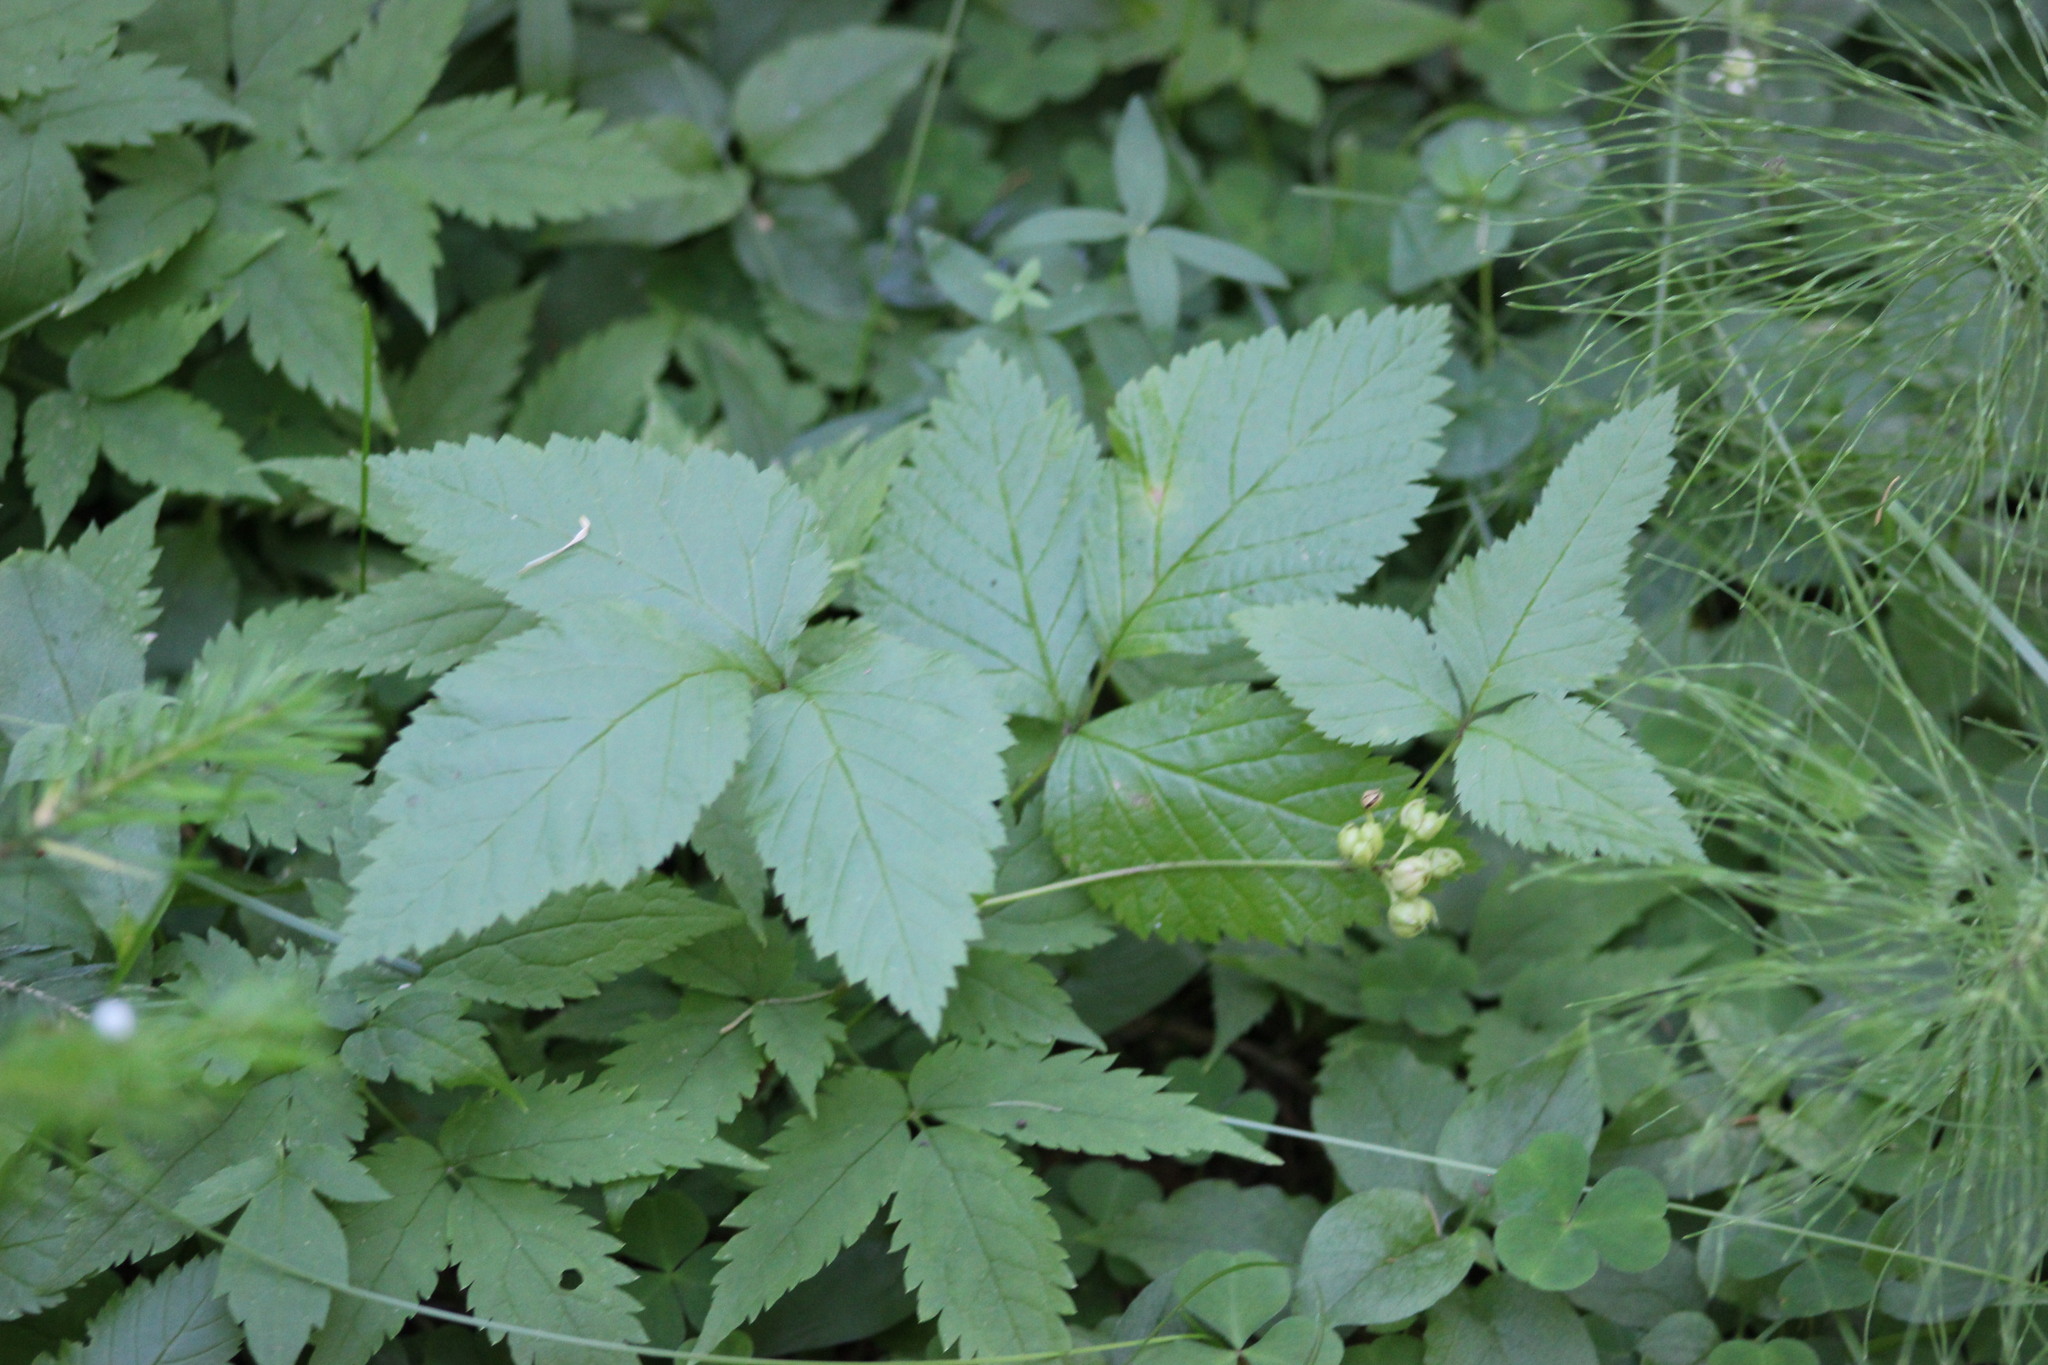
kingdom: Plantae
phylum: Tracheophyta
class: Magnoliopsida
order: Rosales
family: Rosaceae
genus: Rubus
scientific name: Rubus saxatilis
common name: Stone bramble
